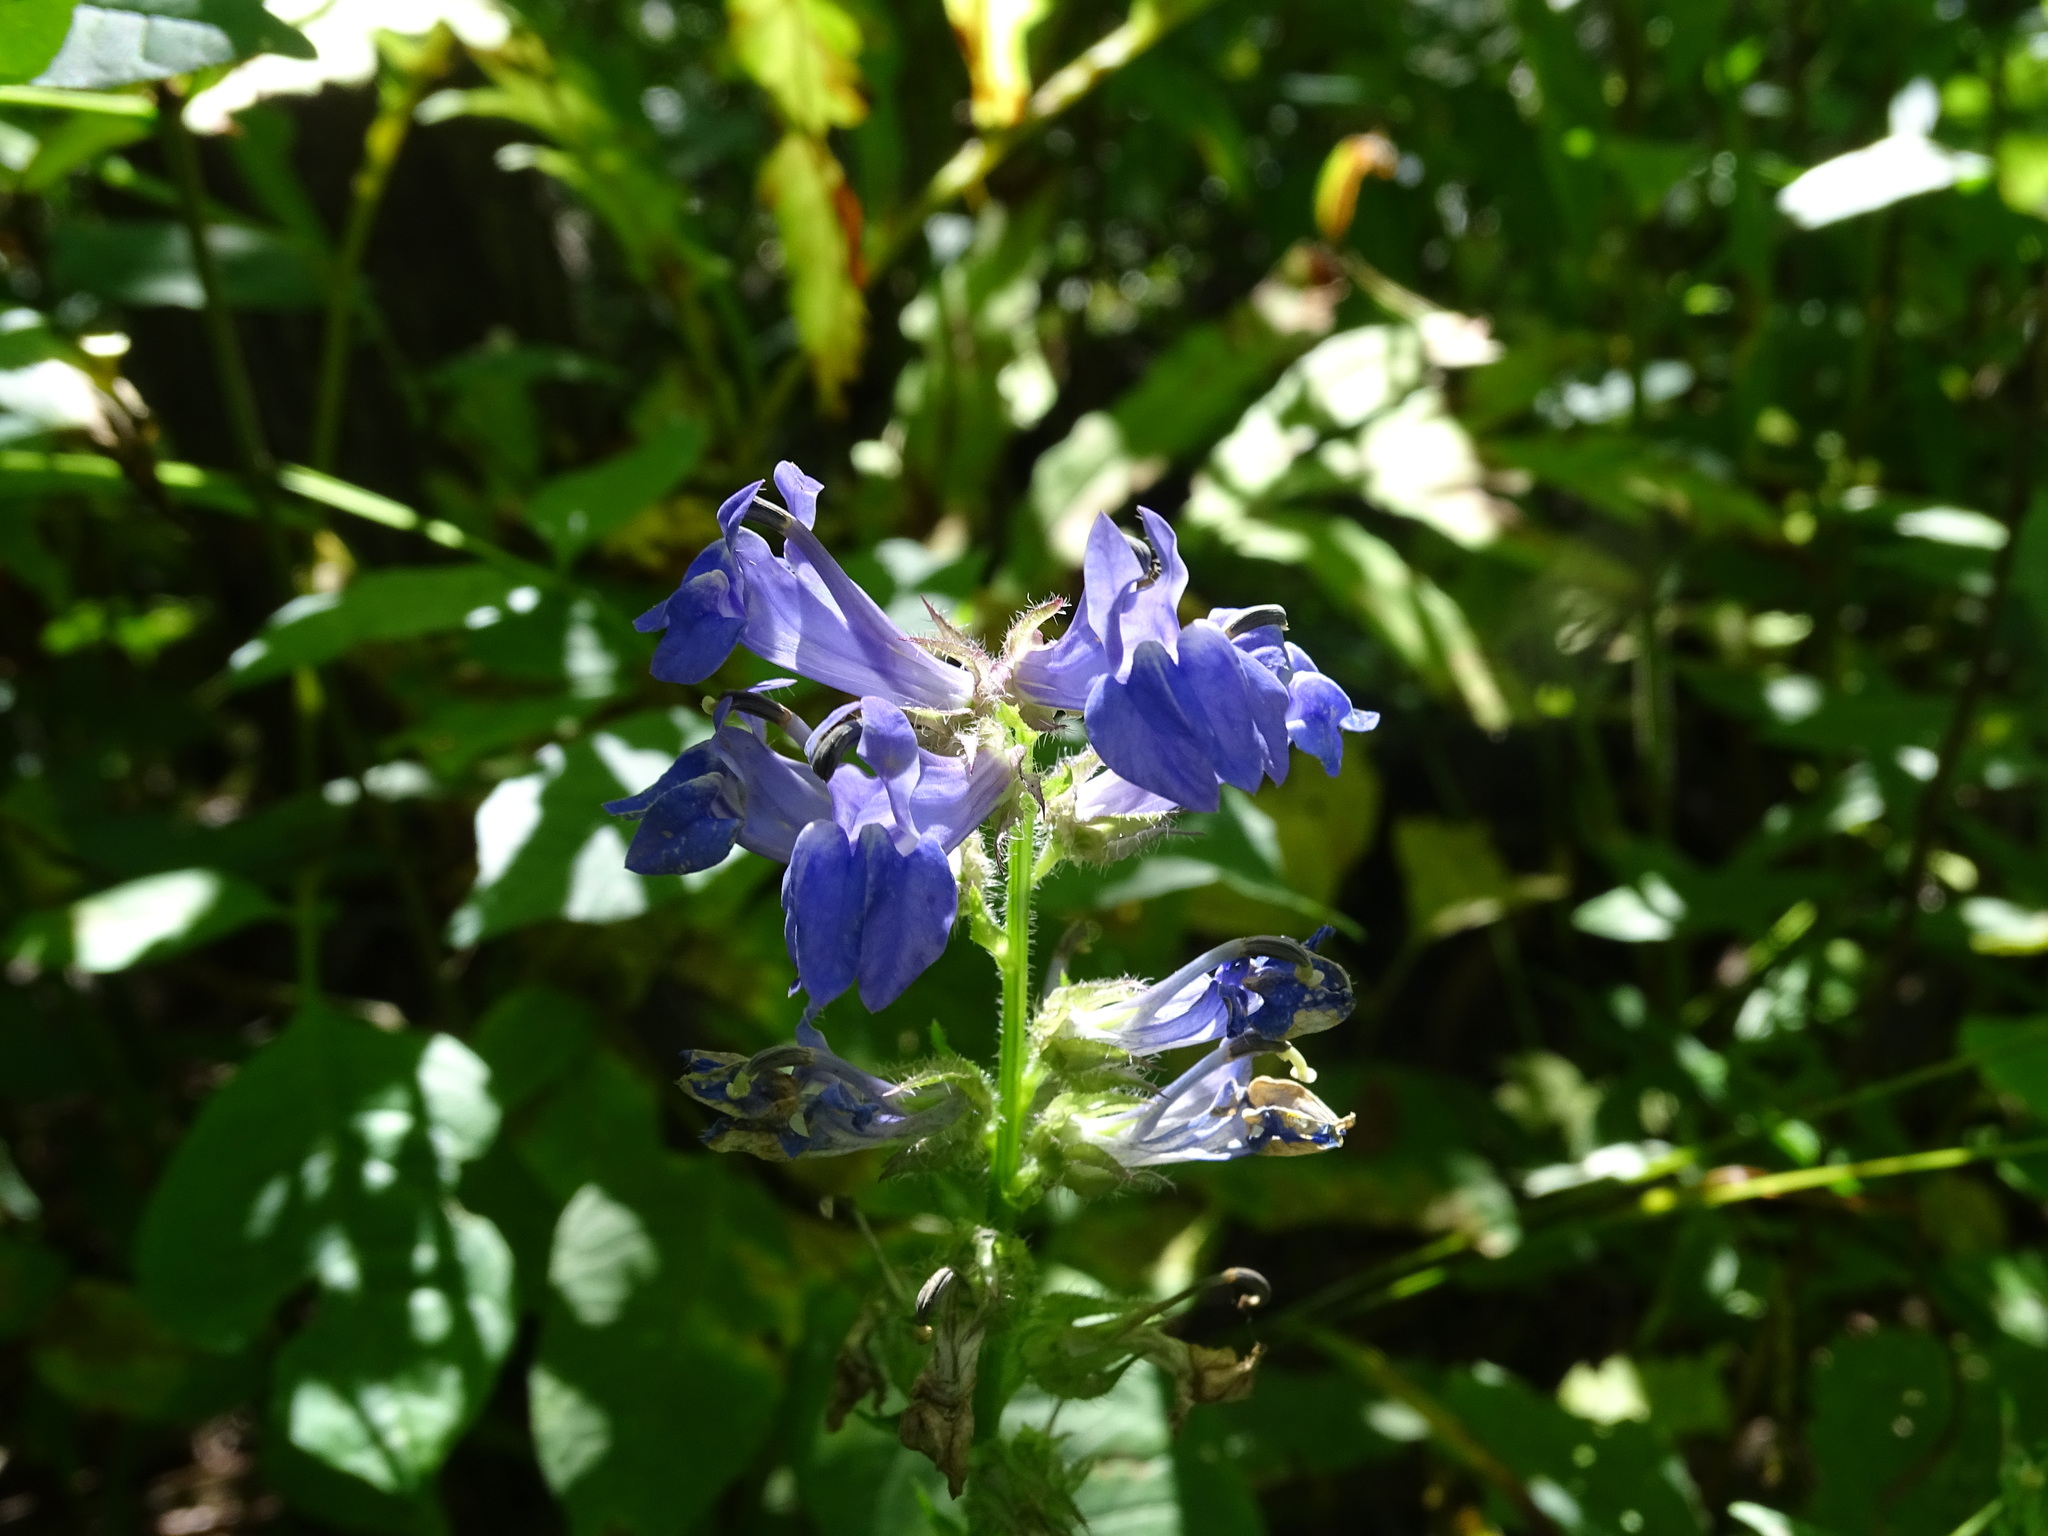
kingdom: Plantae
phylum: Tracheophyta
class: Magnoliopsida
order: Asterales
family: Campanulaceae
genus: Lobelia
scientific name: Lobelia siphilitica
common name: Great lobelia
